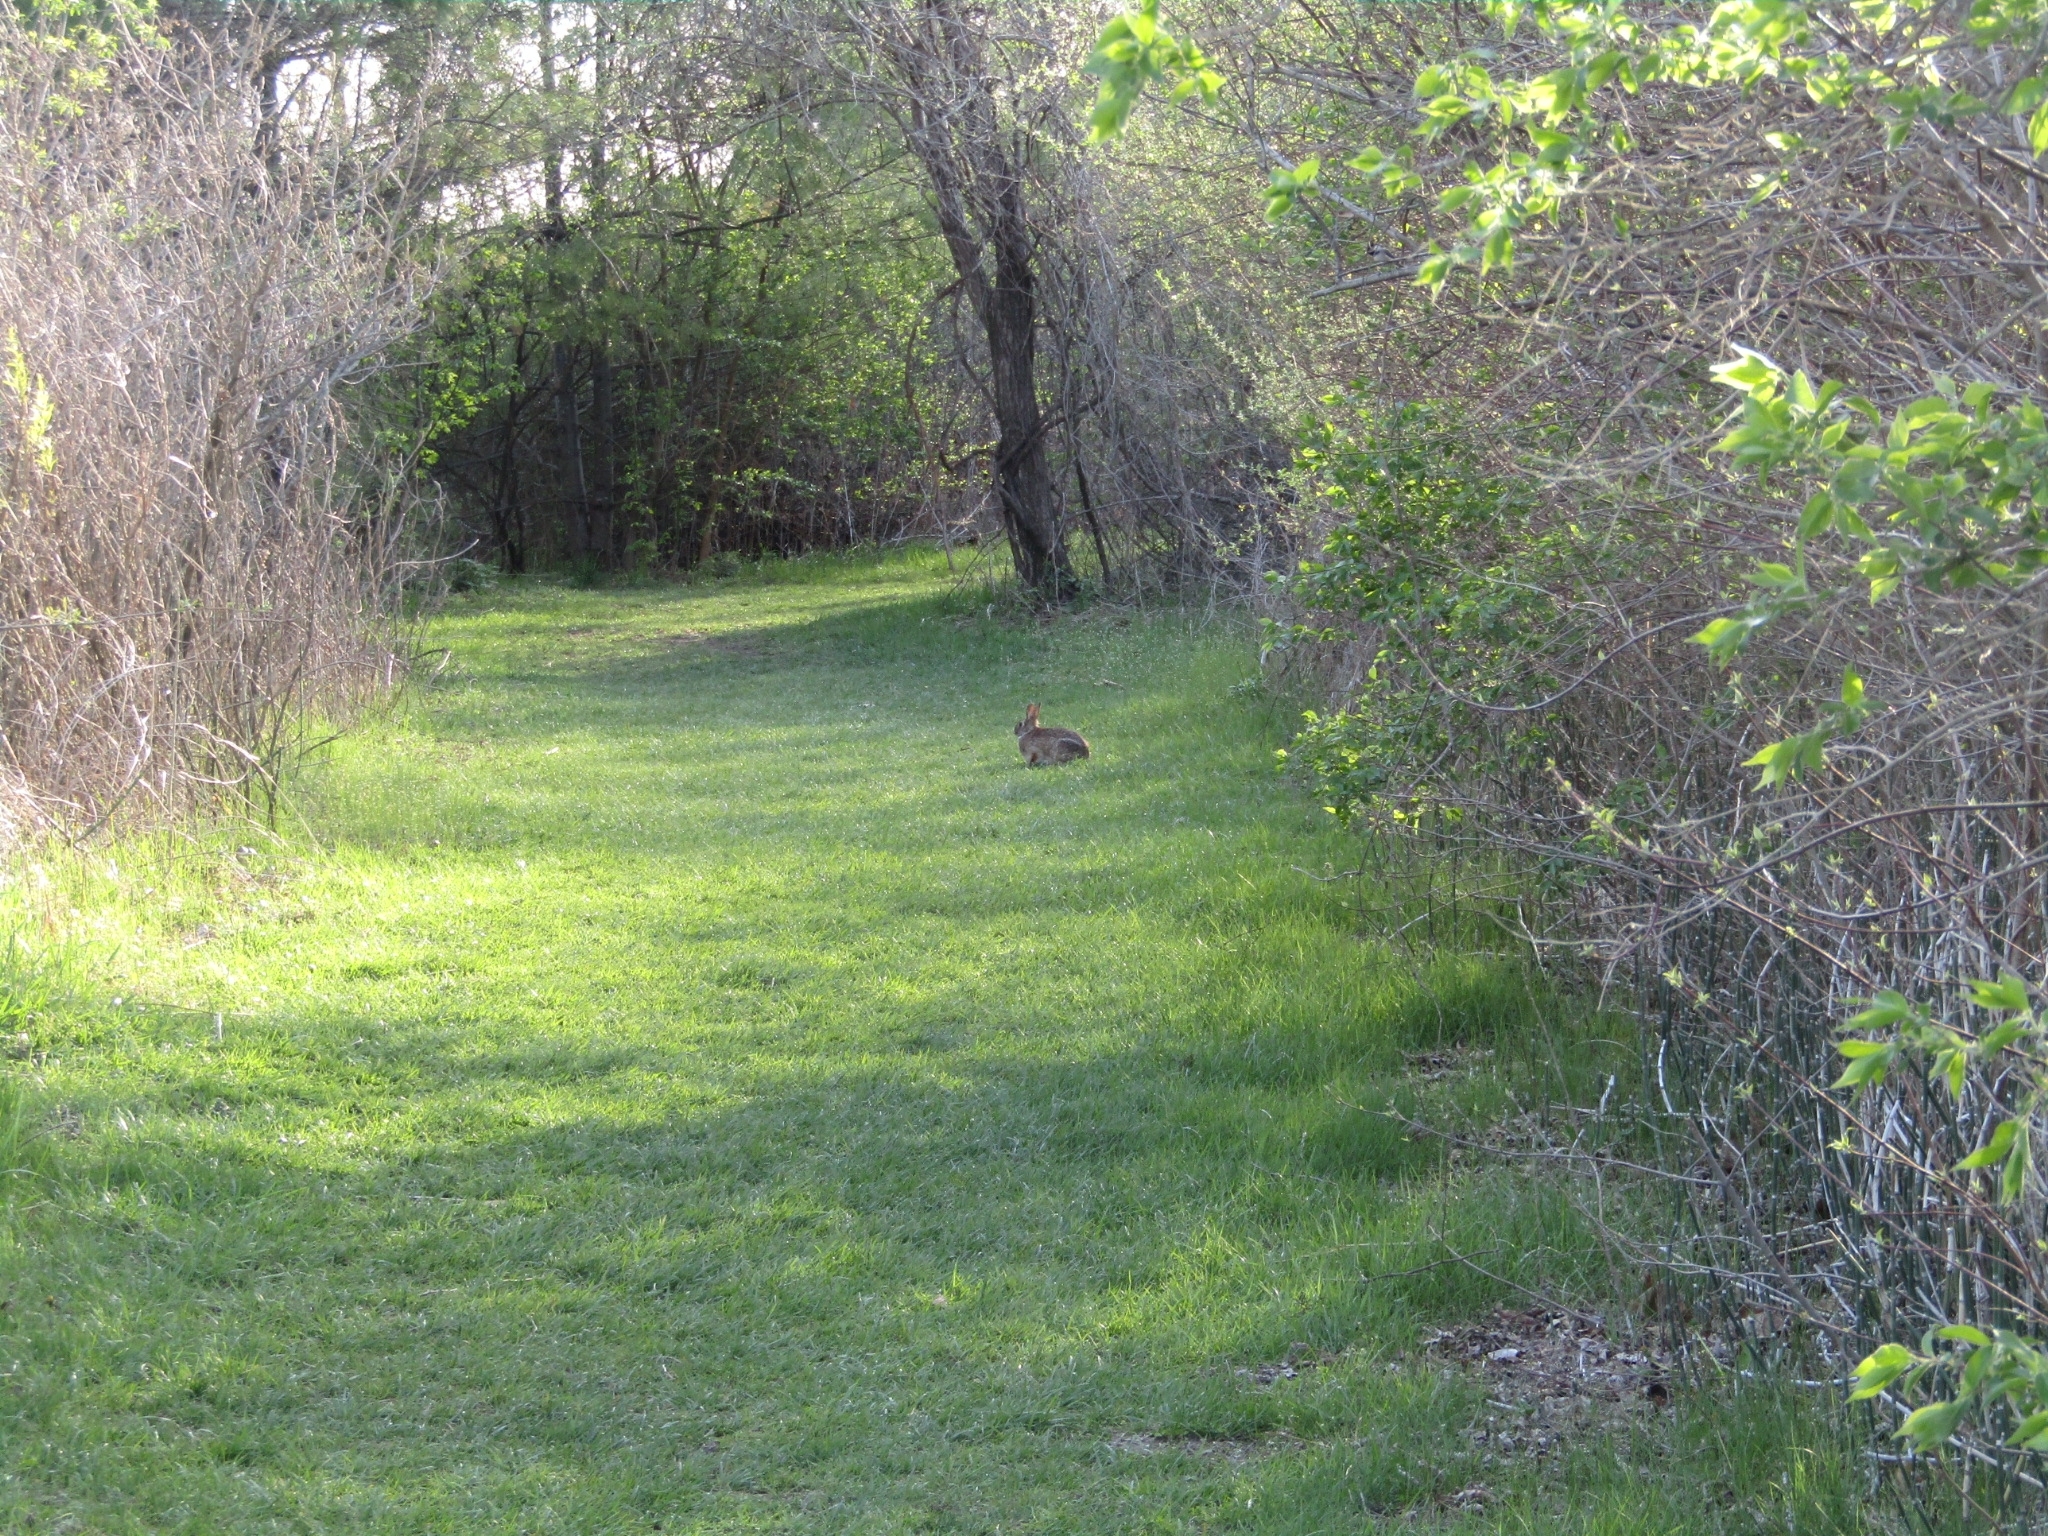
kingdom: Animalia
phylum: Chordata
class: Mammalia
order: Lagomorpha
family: Leporidae
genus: Sylvilagus
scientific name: Sylvilagus floridanus
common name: Eastern cottontail
